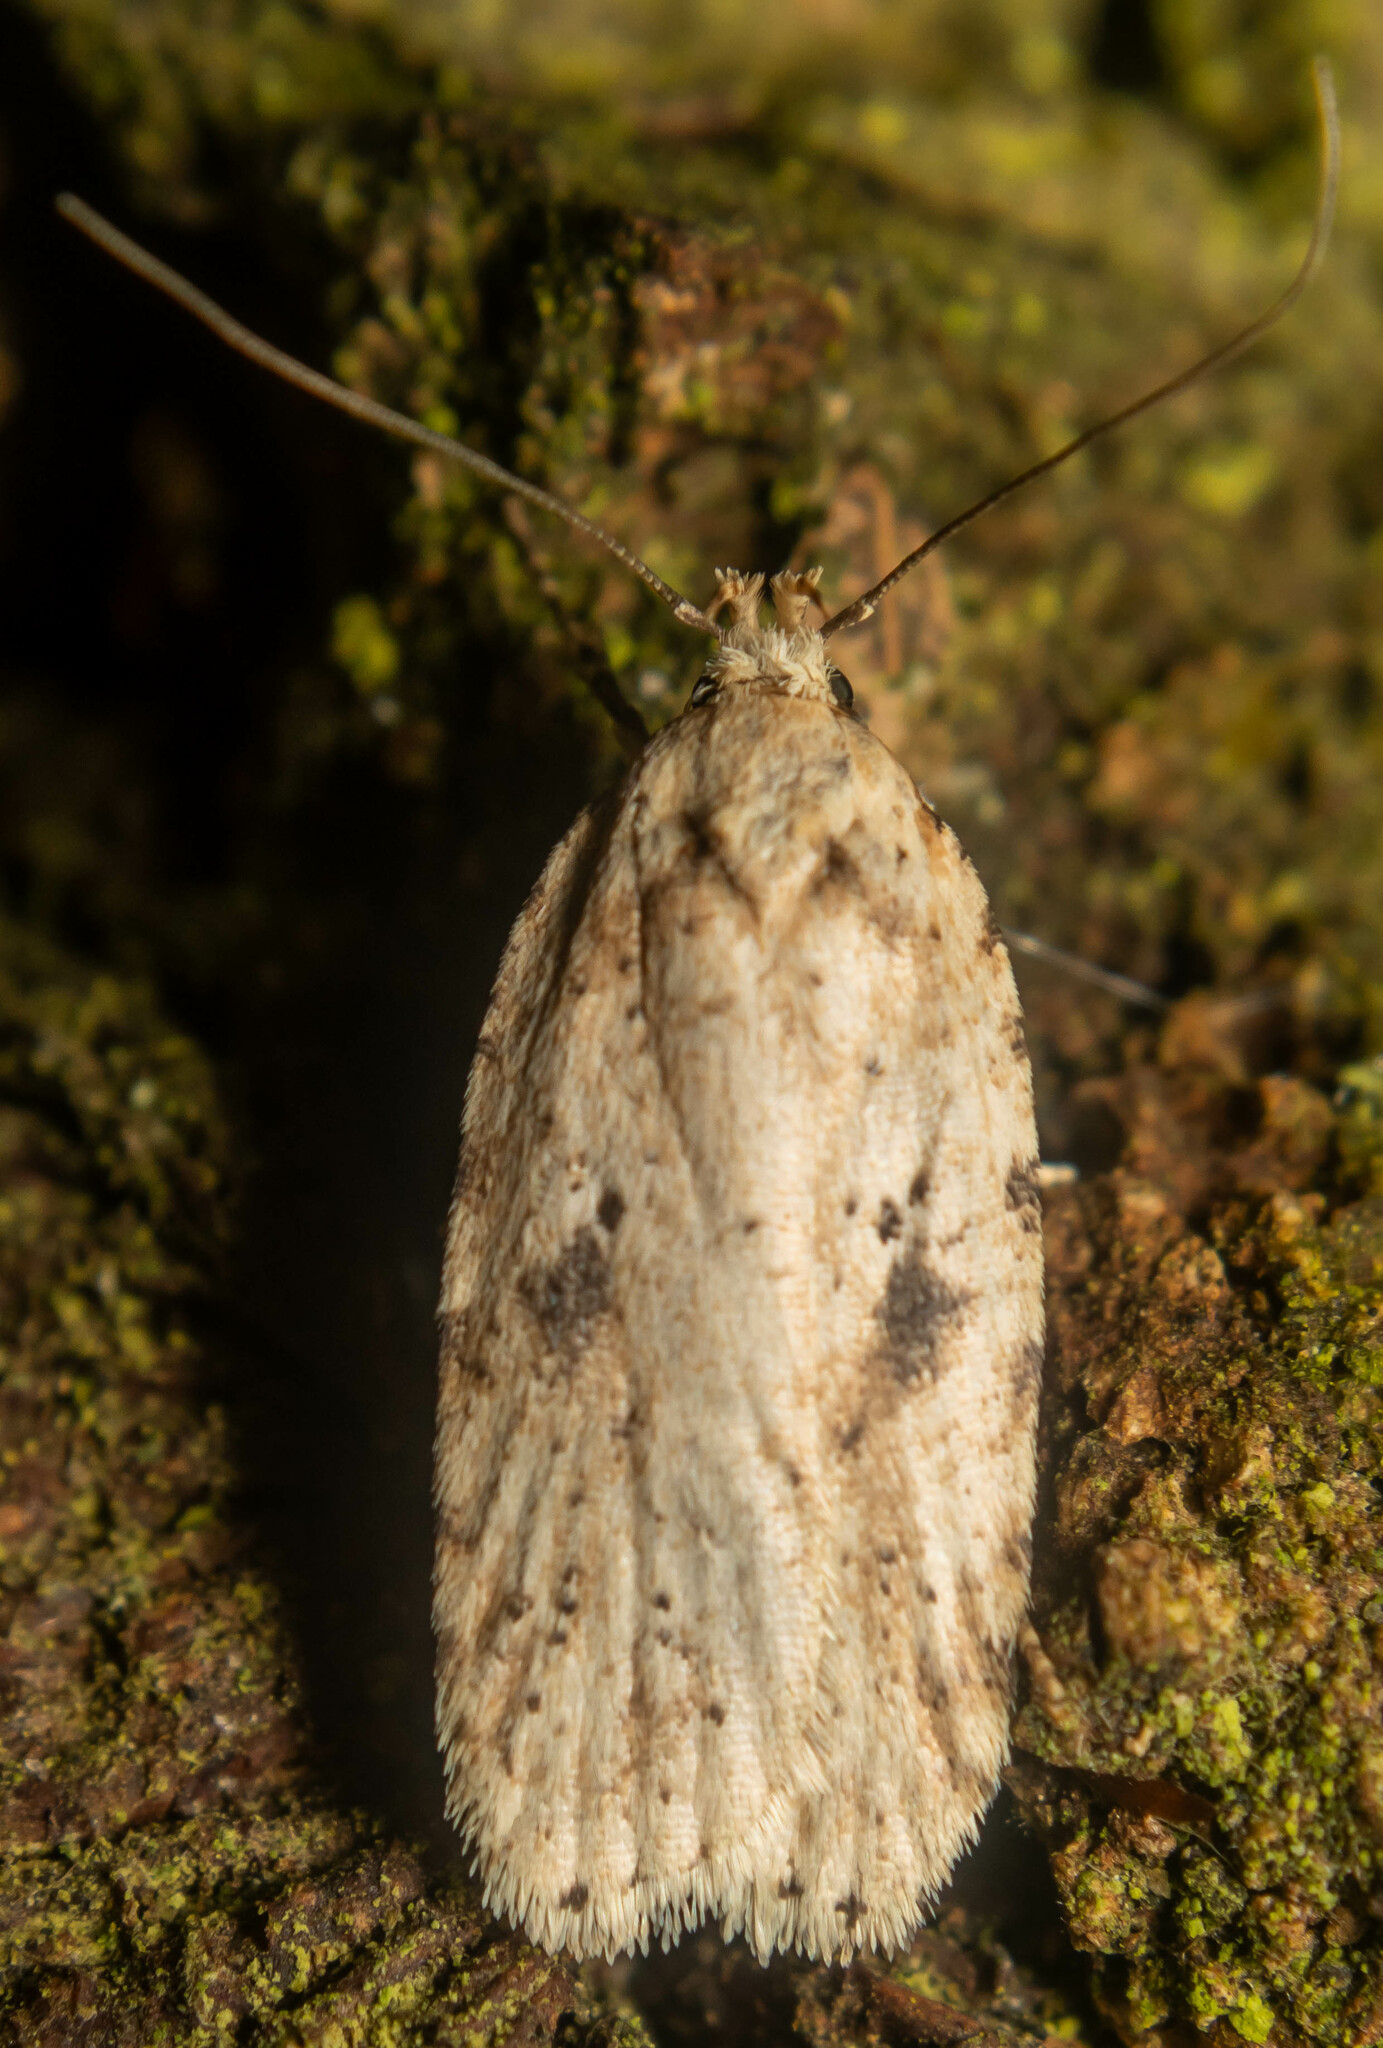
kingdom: Animalia
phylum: Arthropoda
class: Insecta
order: Lepidoptera
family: Depressariidae
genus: Agonopterix
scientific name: Agonopterix arenella
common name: Brindled flat-body
